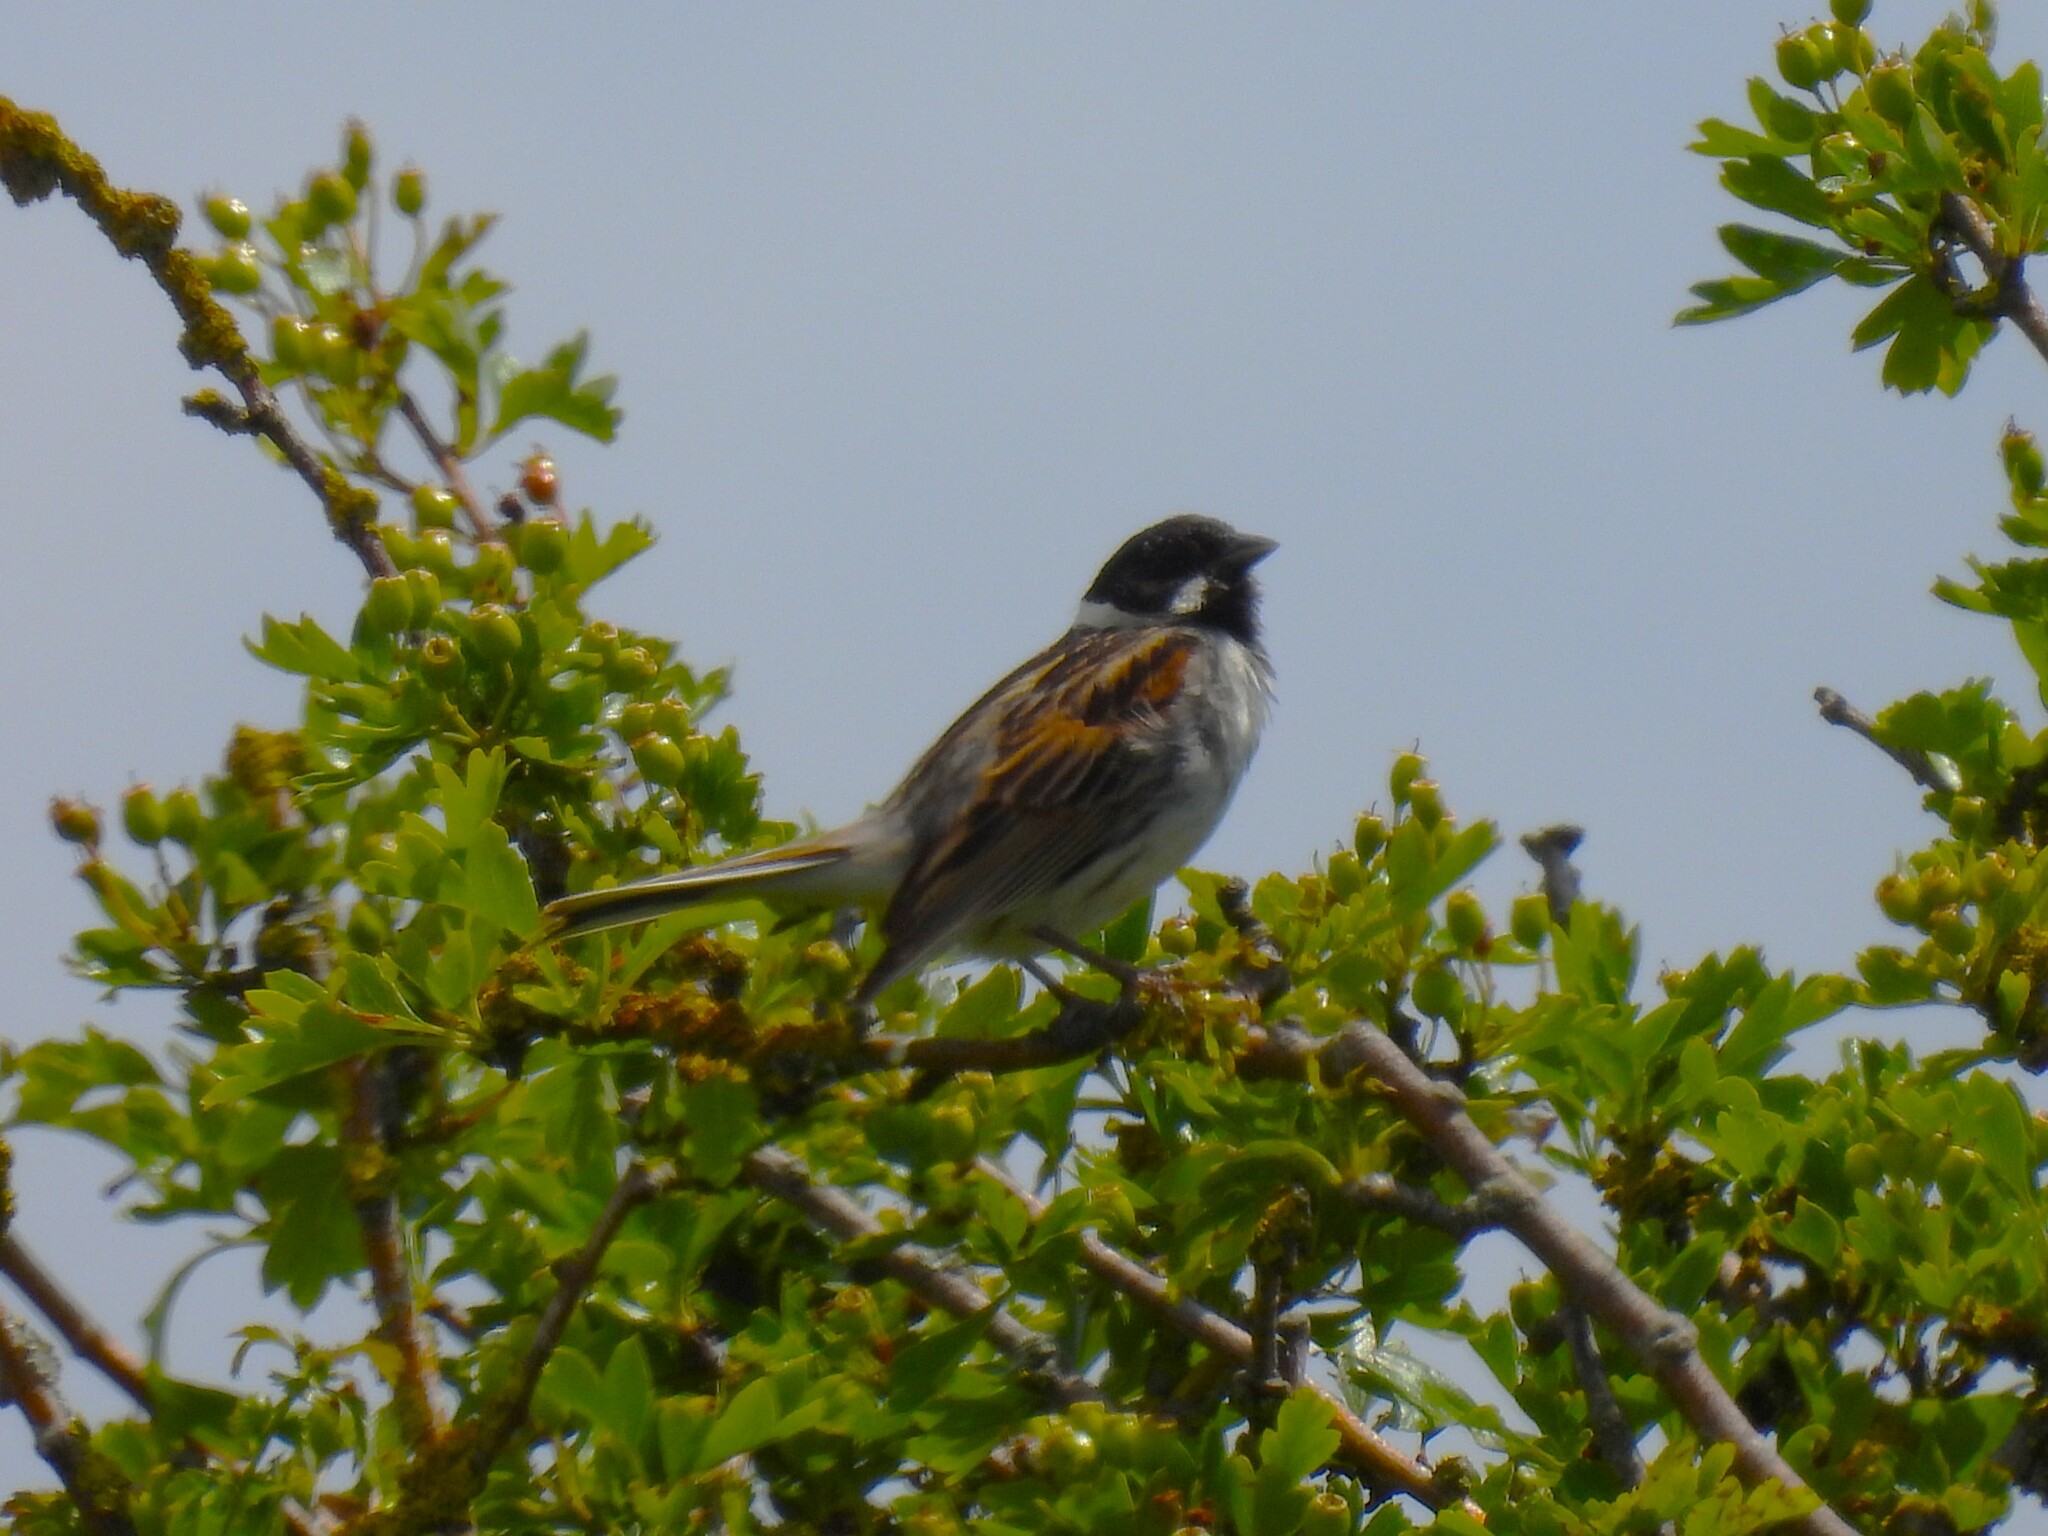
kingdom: Animalia
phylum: Chordata
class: Aves
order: Passeriformes
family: Emberizidae
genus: Emberiza
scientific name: Emberiza schoeniclus
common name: Reed bunting
